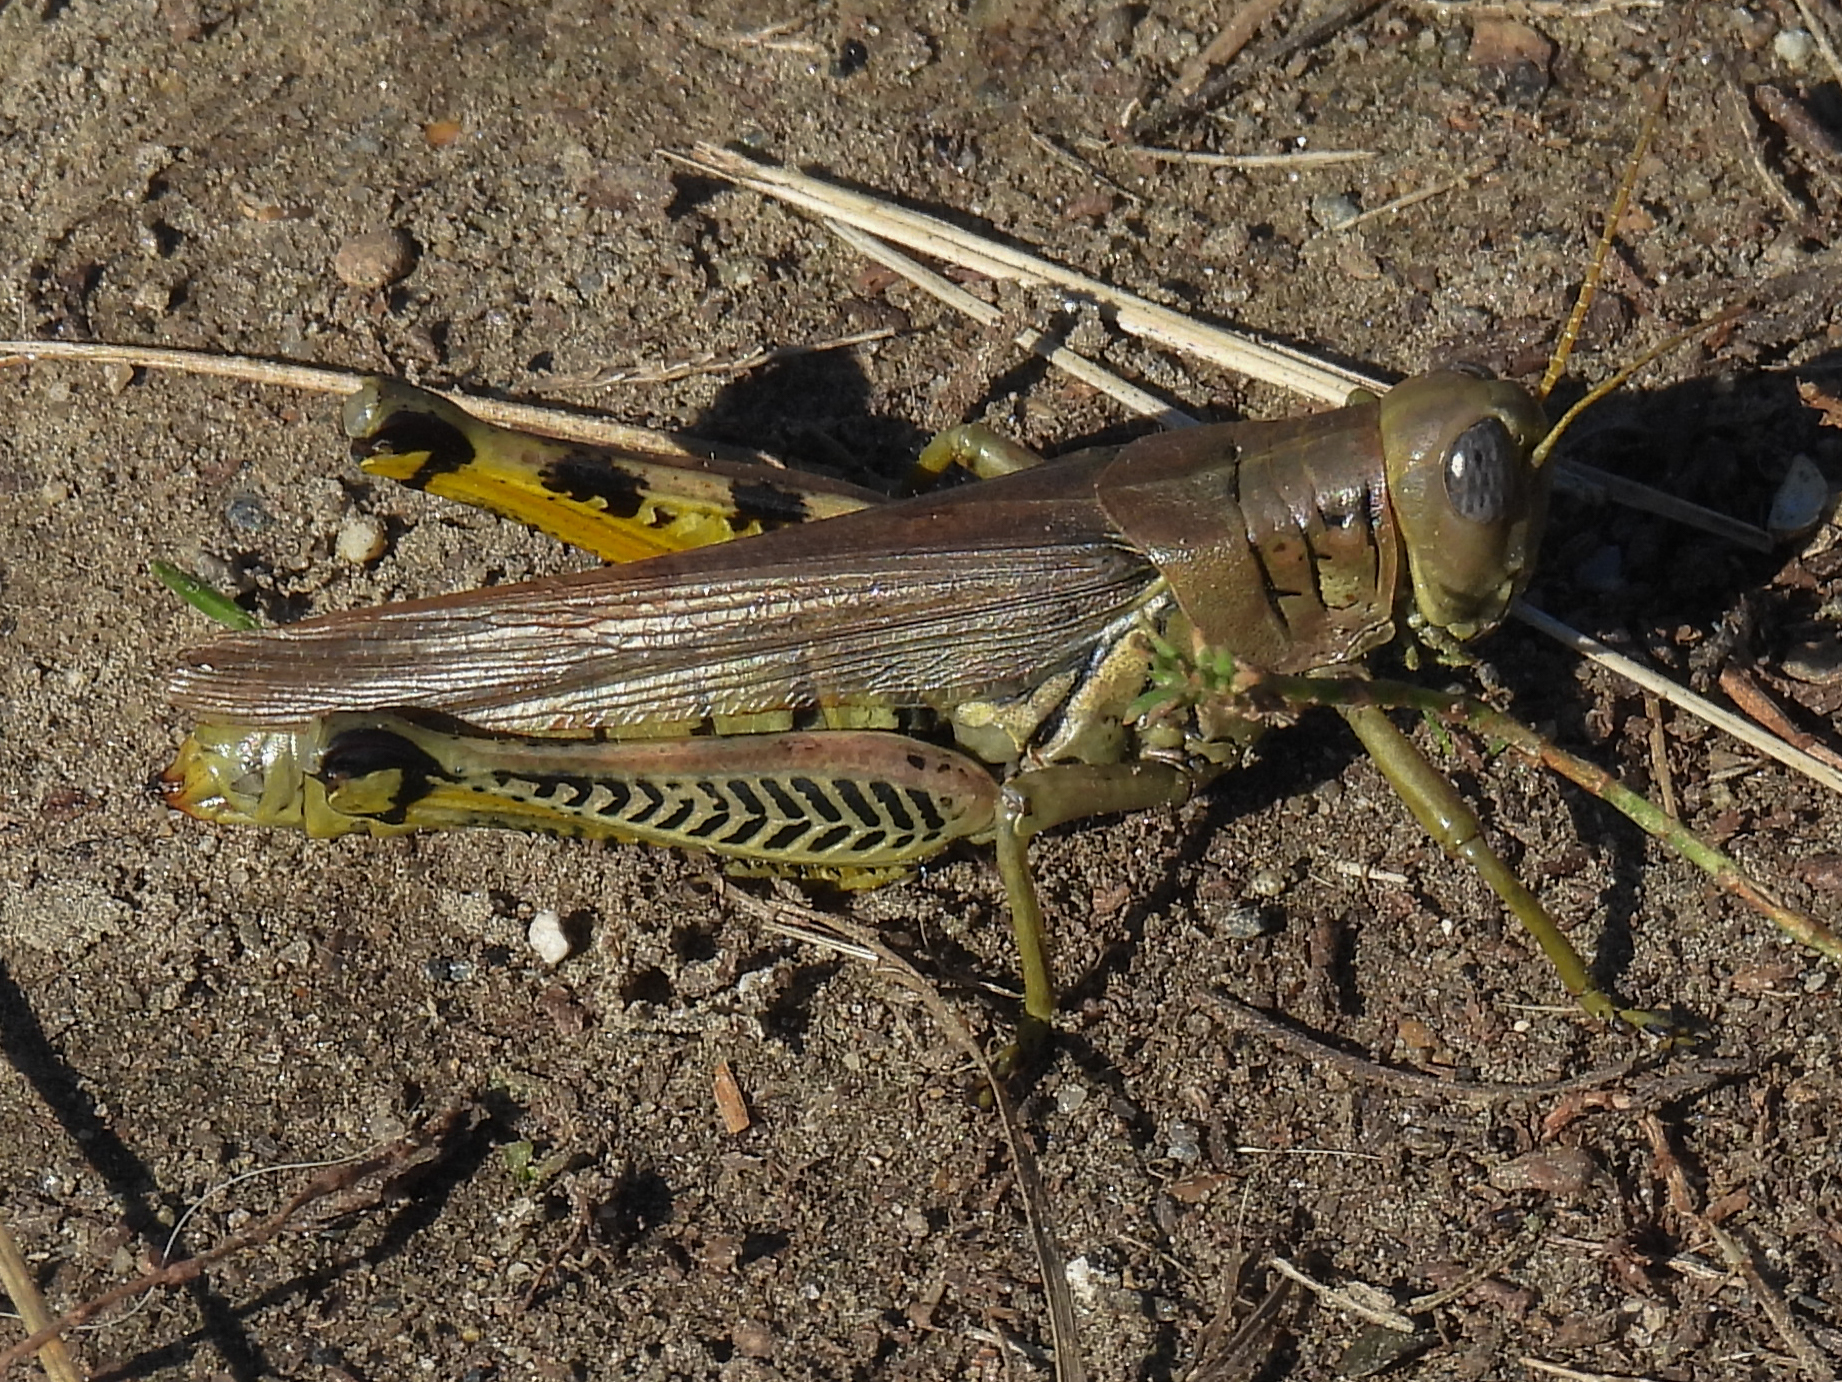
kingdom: Animalia
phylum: Arthropoda
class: Insecta
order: Orthoptera
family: Acrididae
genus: Melanoplus
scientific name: Melanoplus differentialis
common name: Differential grasshopper
